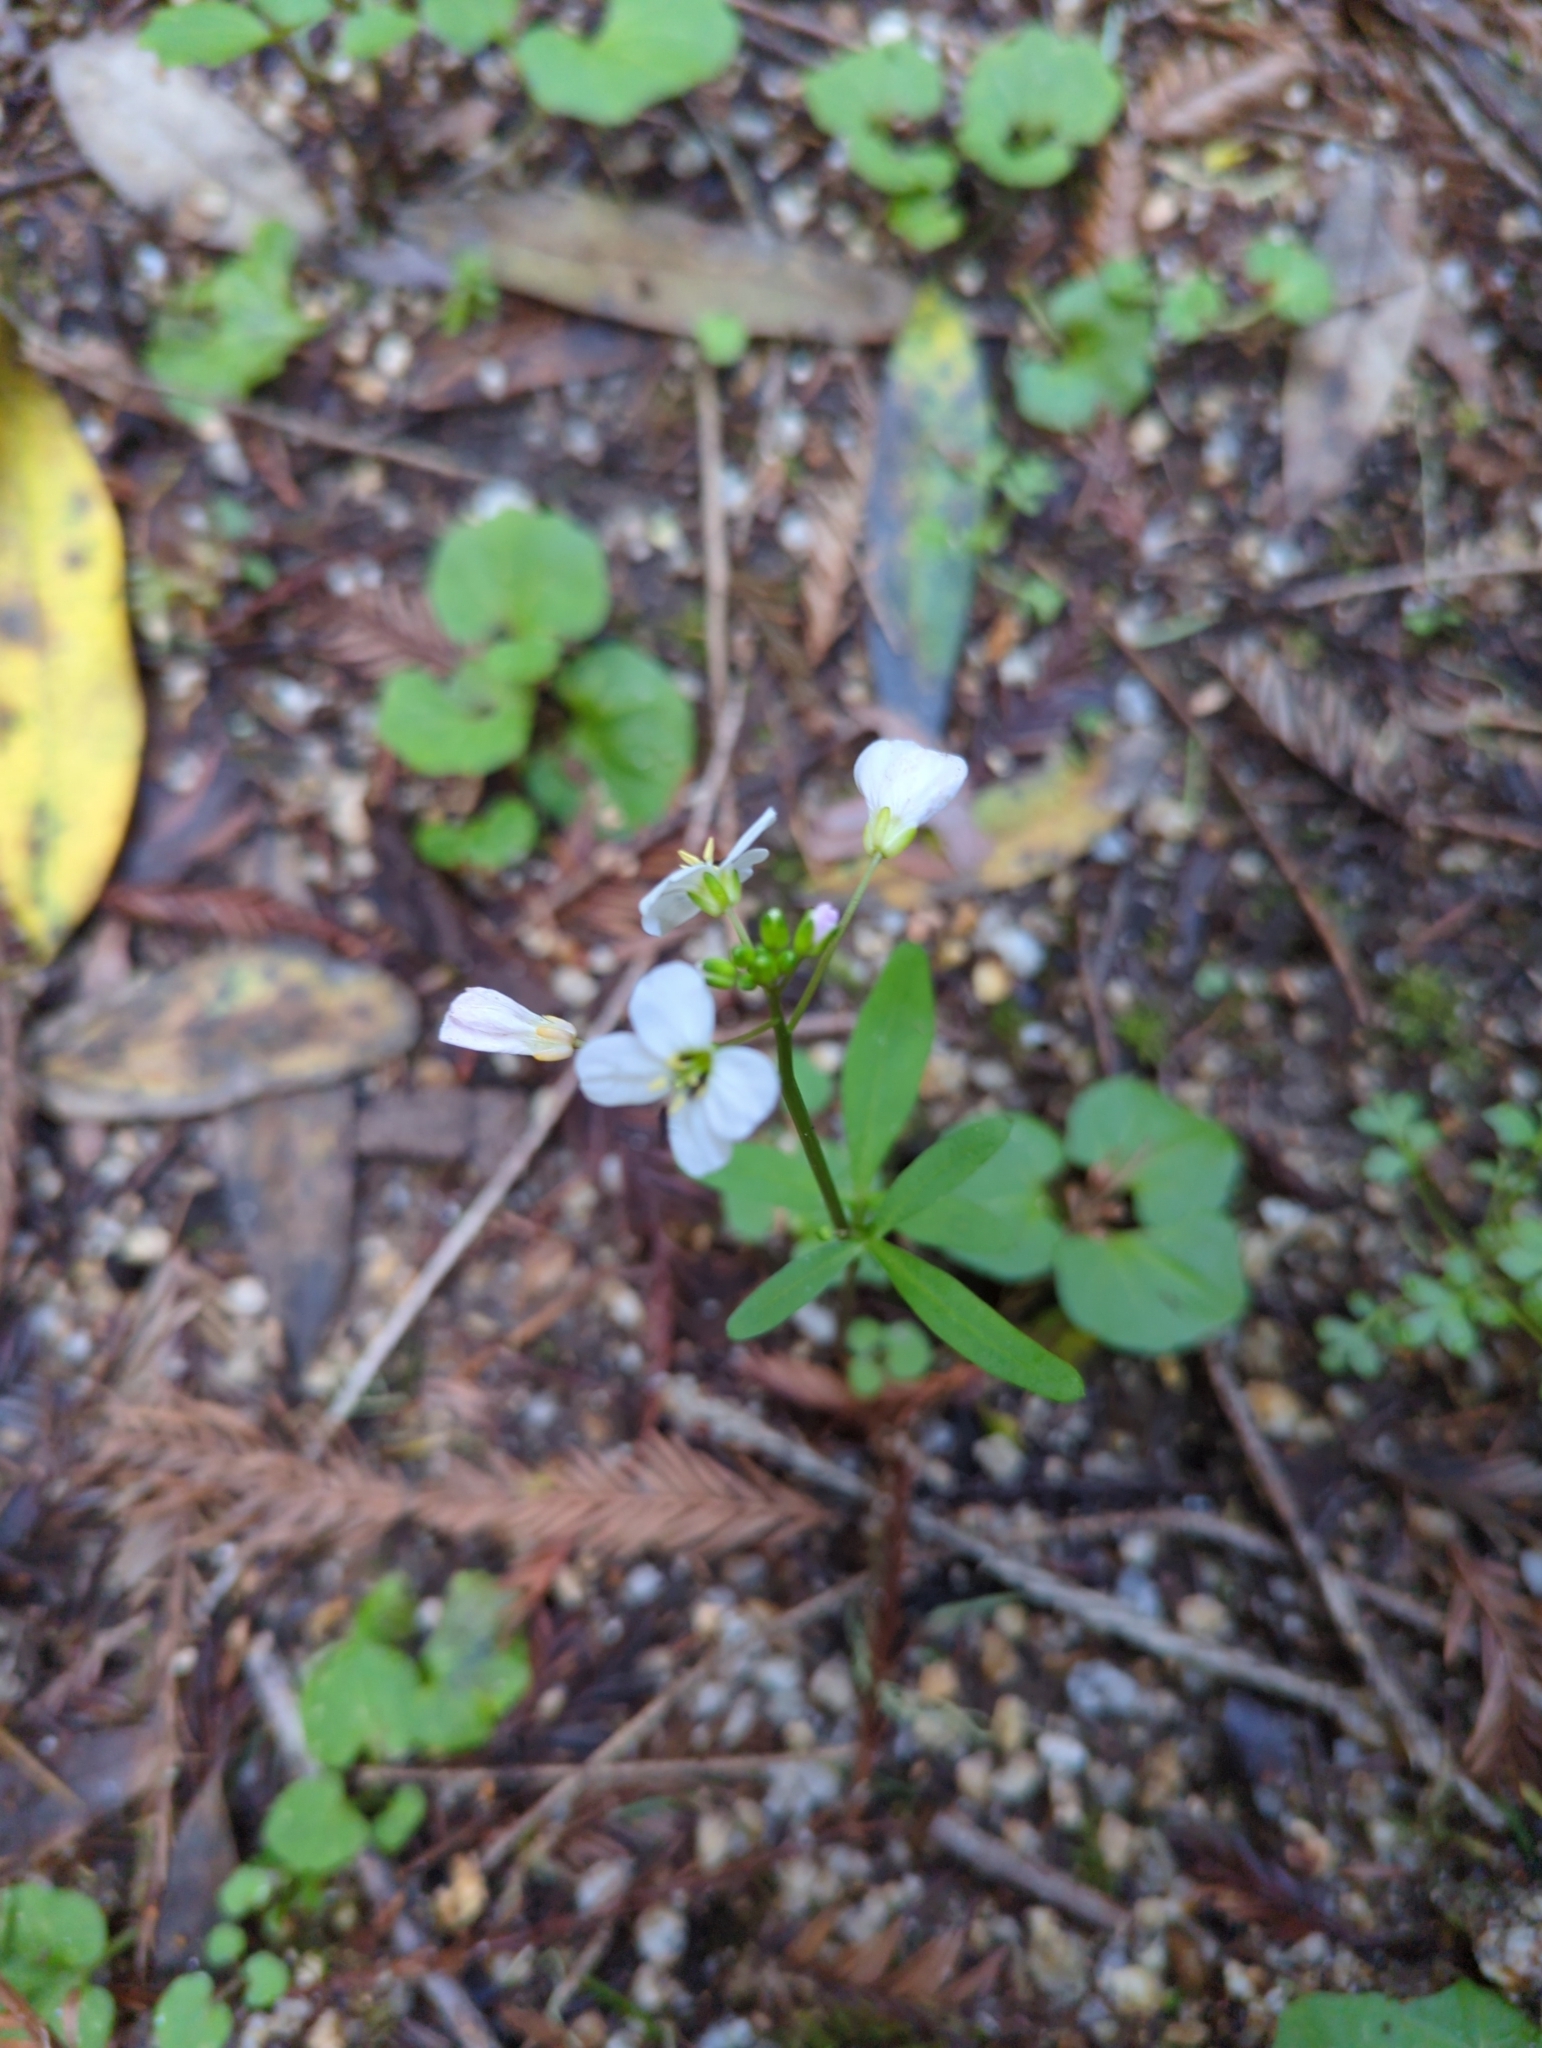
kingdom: Plantae
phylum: Tracheophyta
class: Magnoliopsida
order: Brassicales
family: Brassicaceae
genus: Cardamine
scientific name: Cardamine californica
